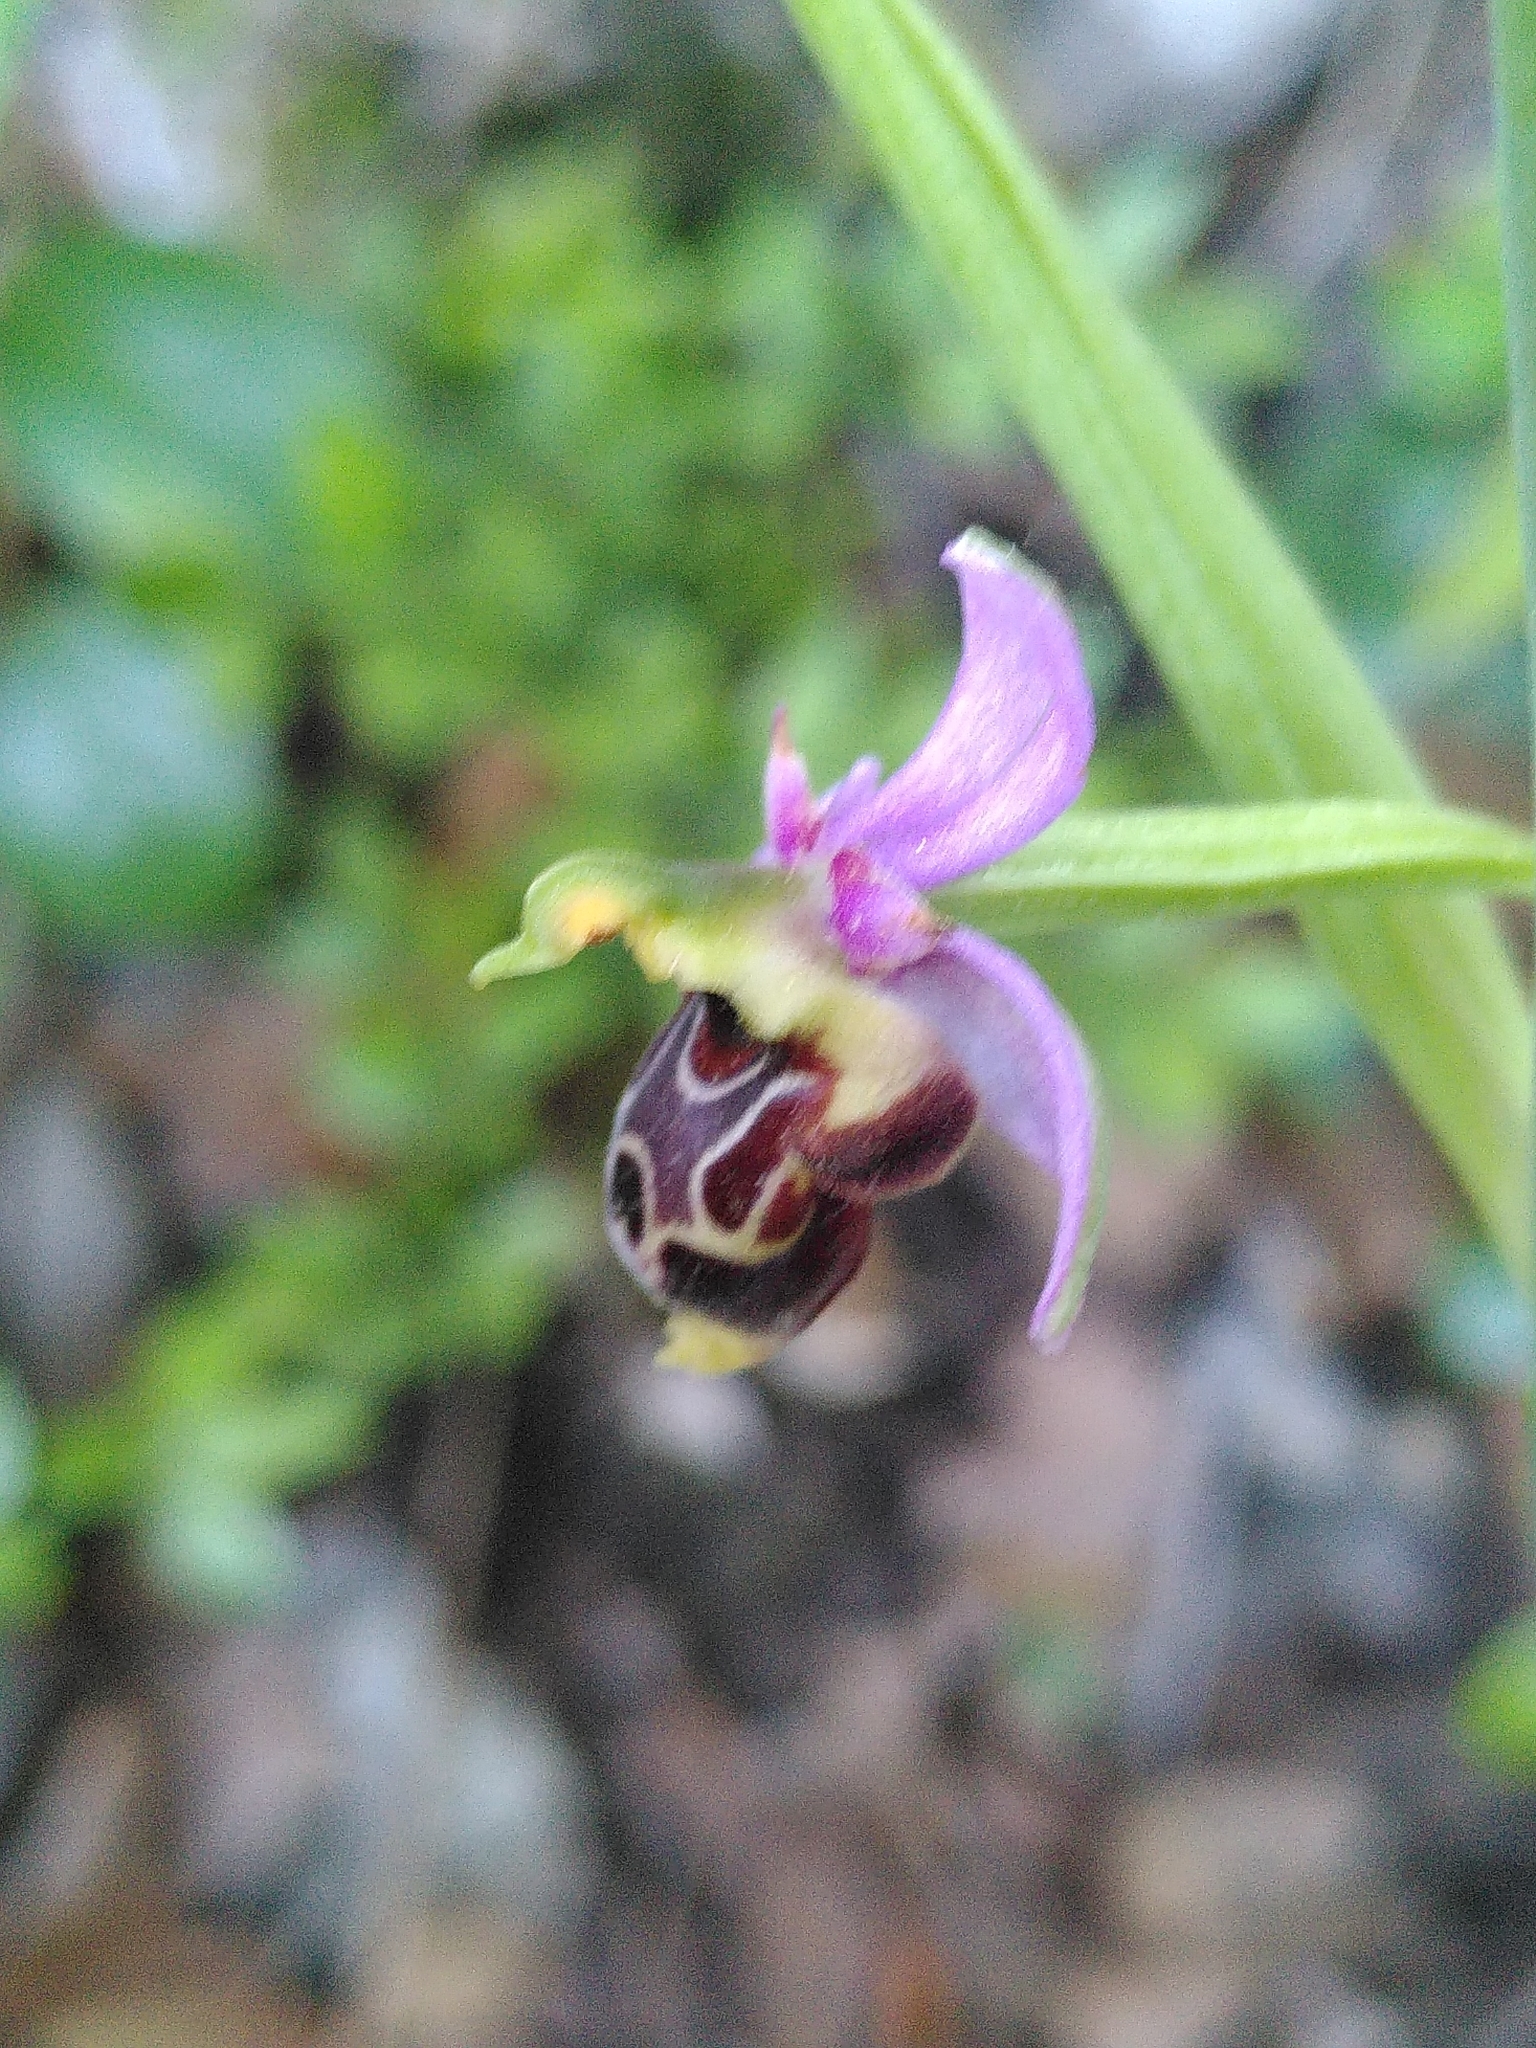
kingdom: Plantae
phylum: Tracheophyta
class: Liliopsida
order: Asparagales
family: Orchidaceae
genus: Ophrys
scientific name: Ophrys scolopax
